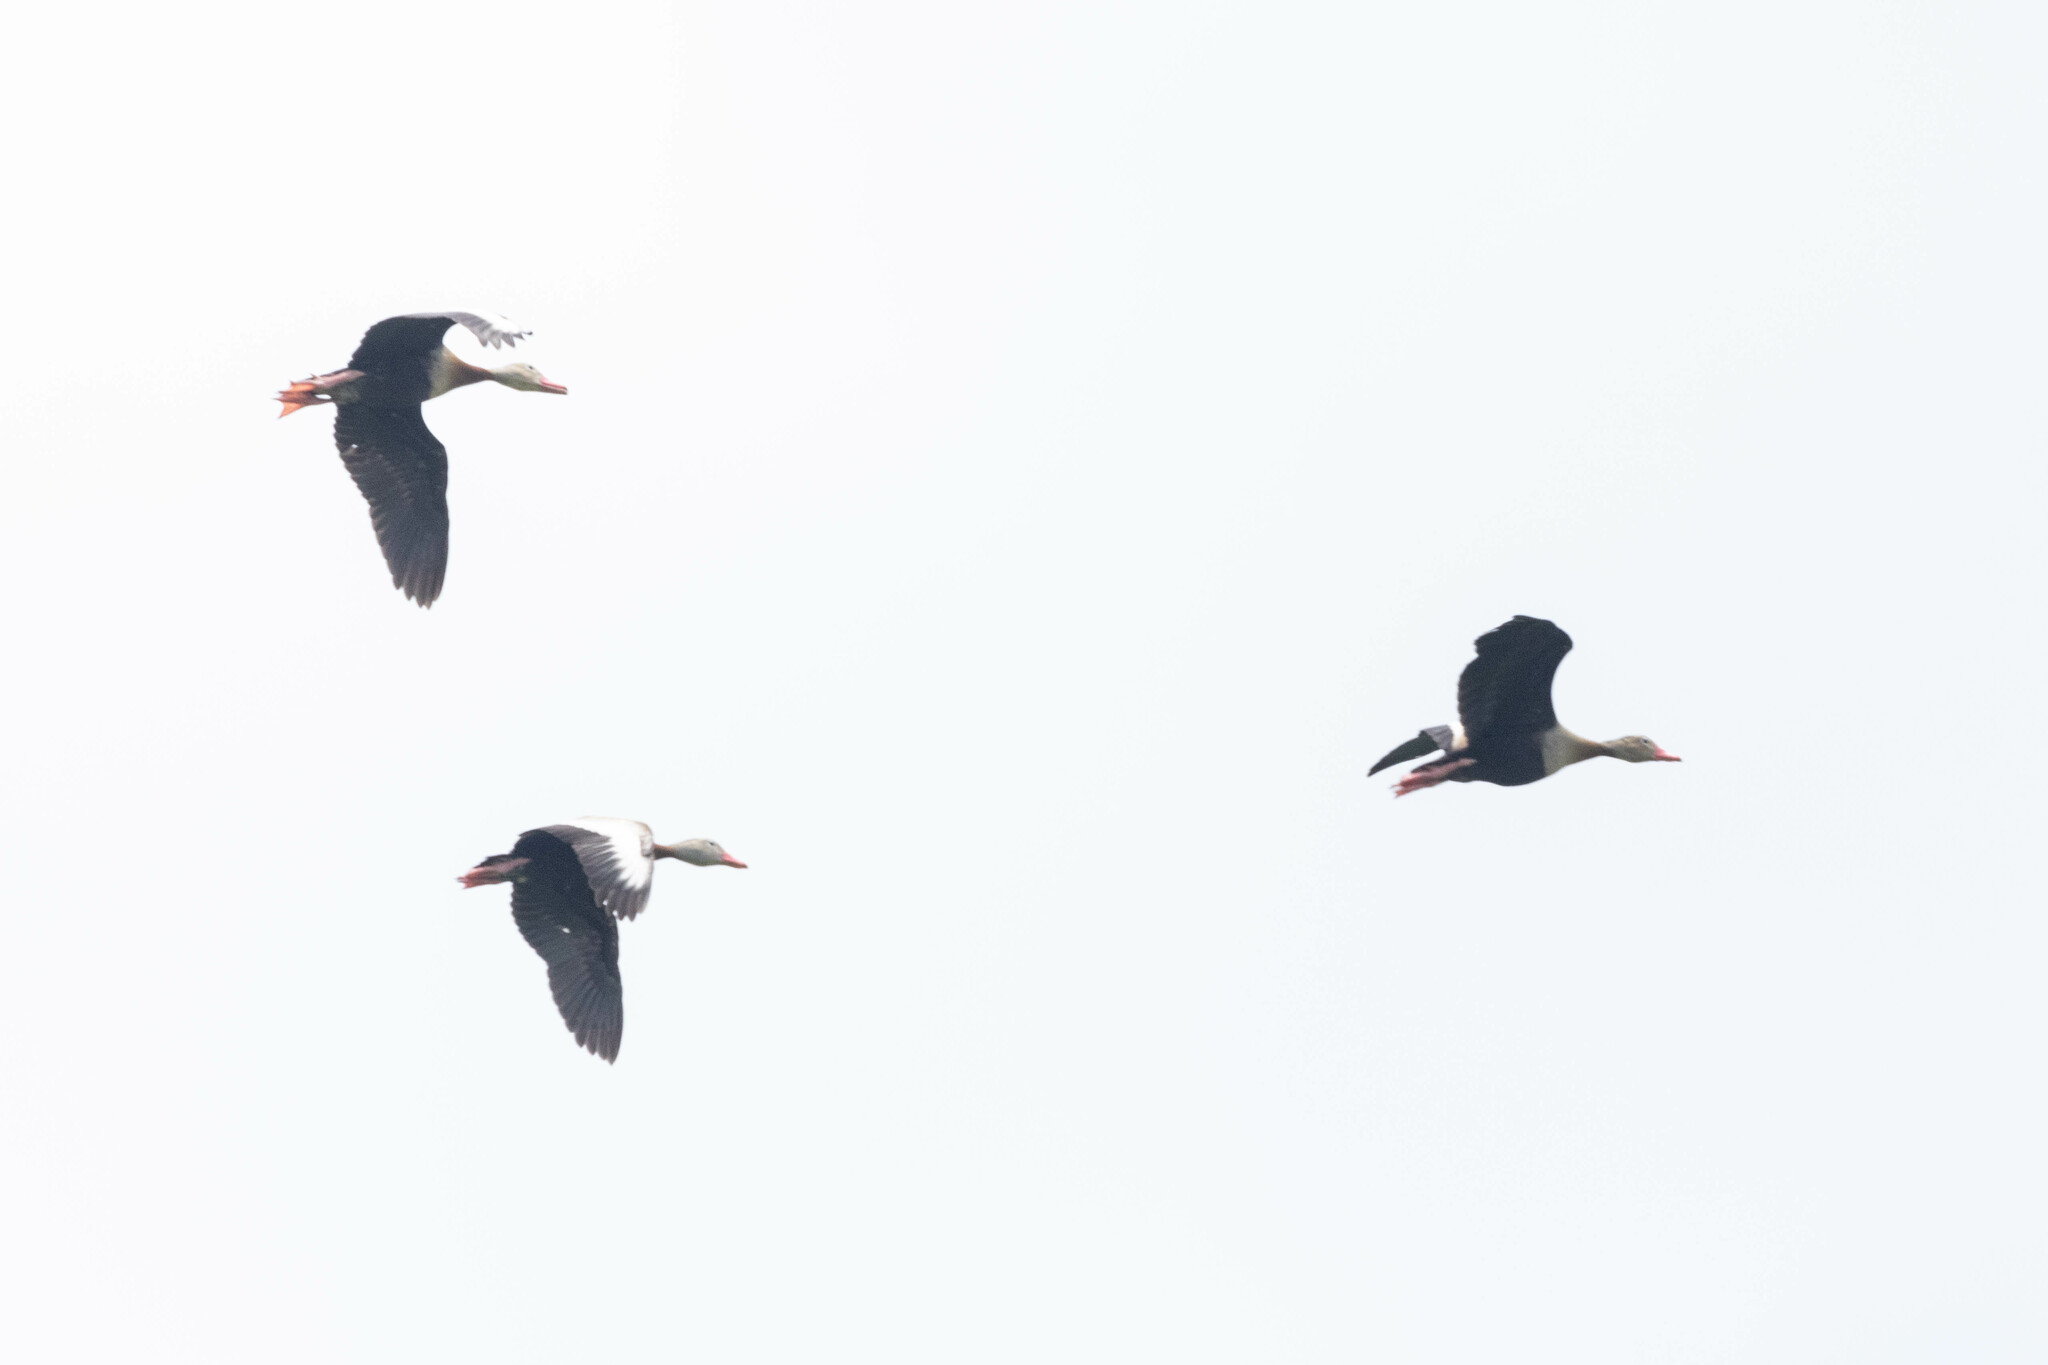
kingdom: Animalia
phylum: Chordata
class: Aves
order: Anseriformes
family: Anatidae
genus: Dendrocygna
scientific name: Dendrocygna autumnalis
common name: Black-bellied whistling duck
